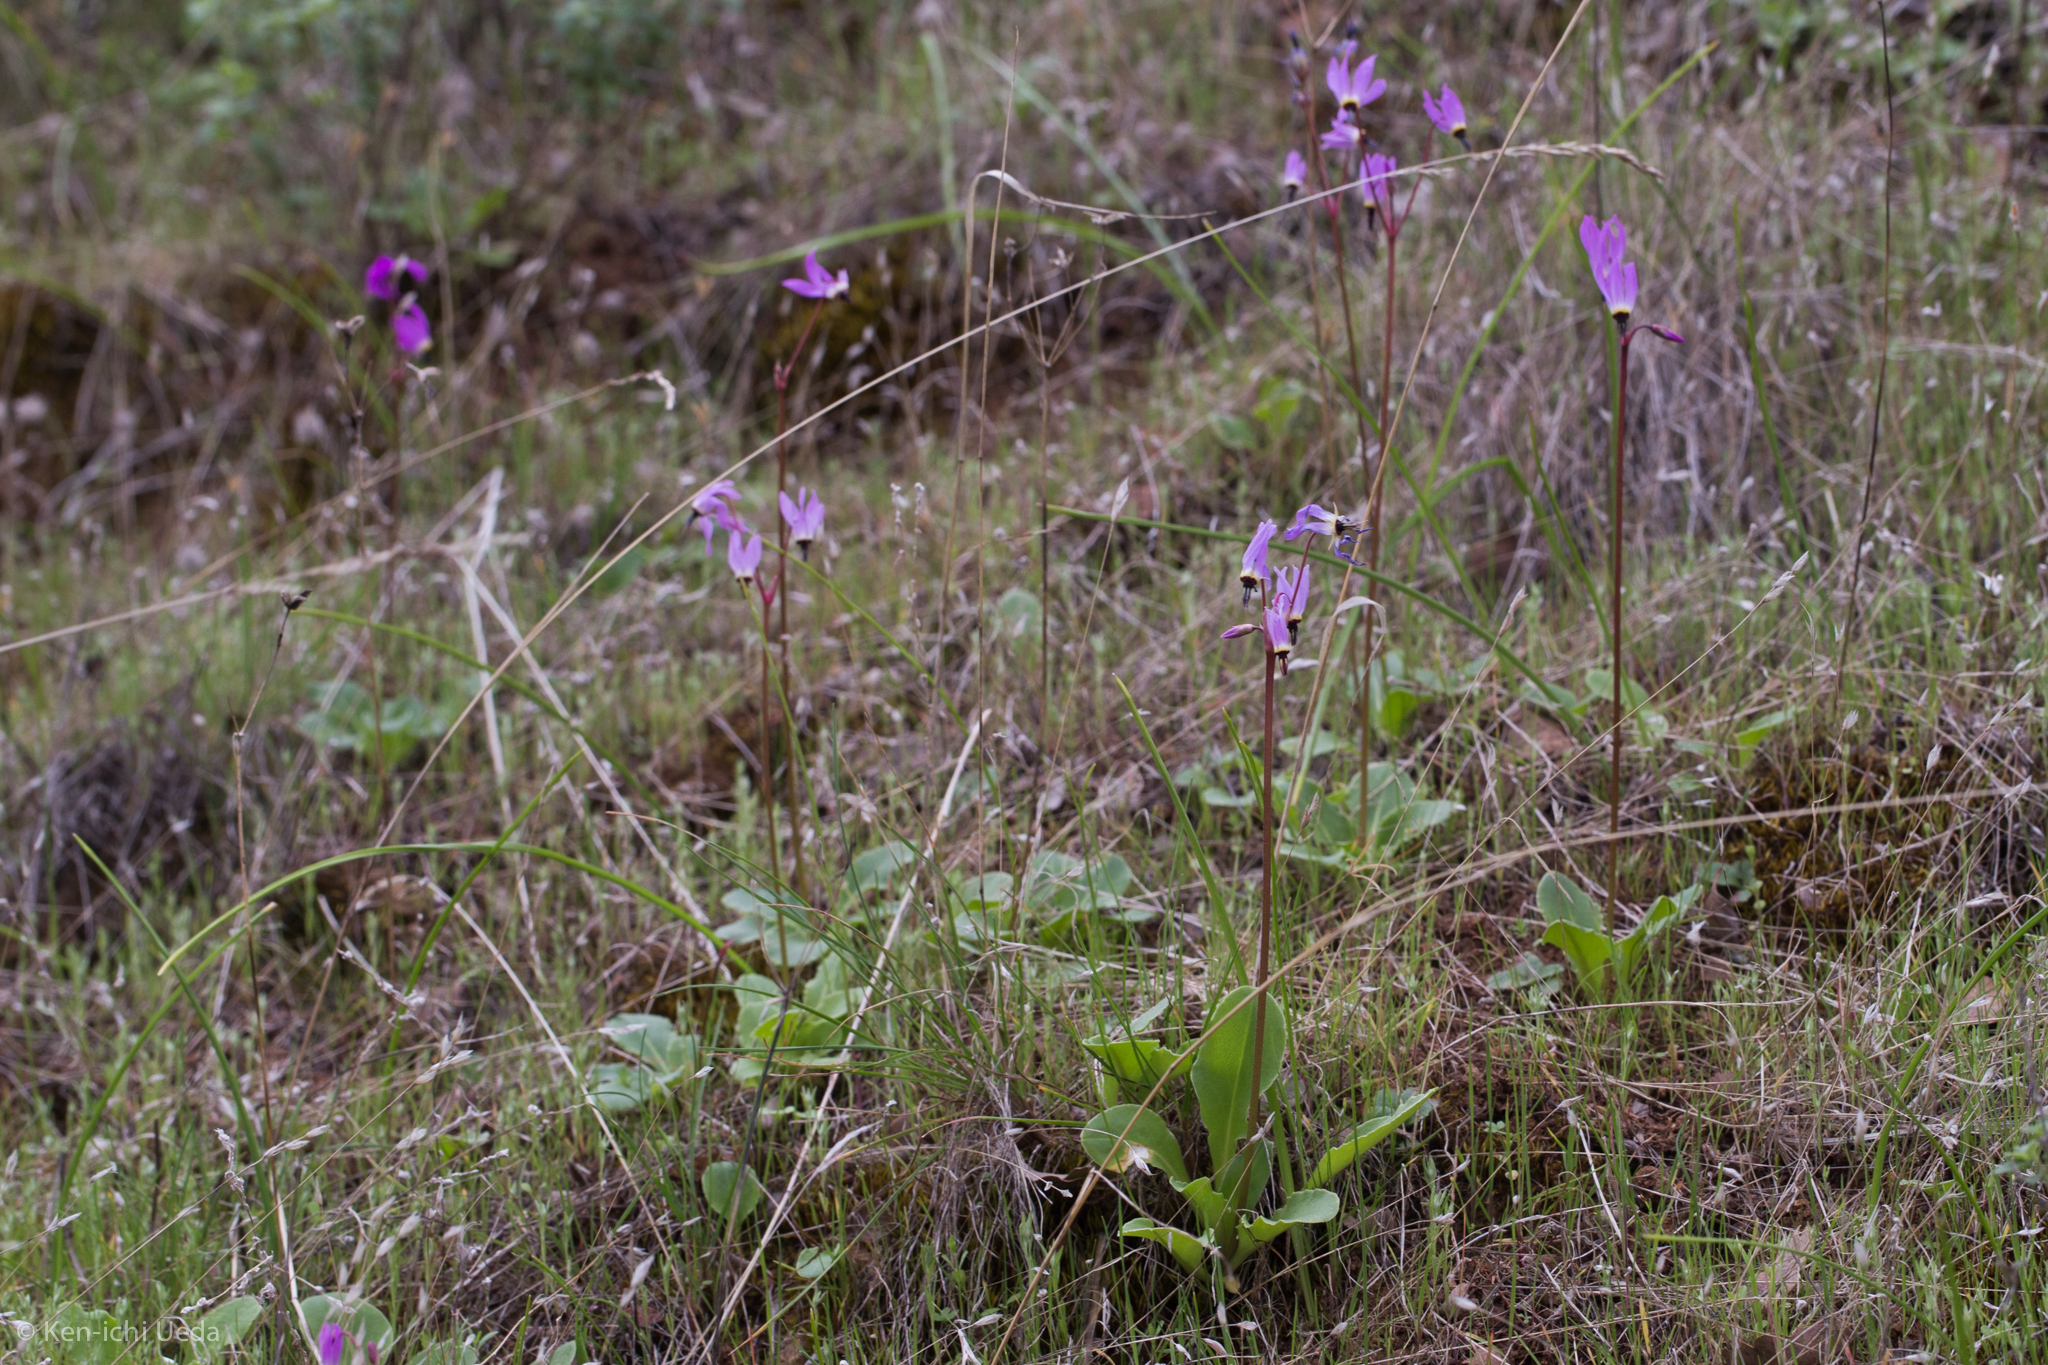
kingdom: Plantae
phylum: Tracheophyta
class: Magnoliopsida
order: Ericales
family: Primulaceae
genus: Dodecatheon
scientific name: Dodecatheon hendersonii
